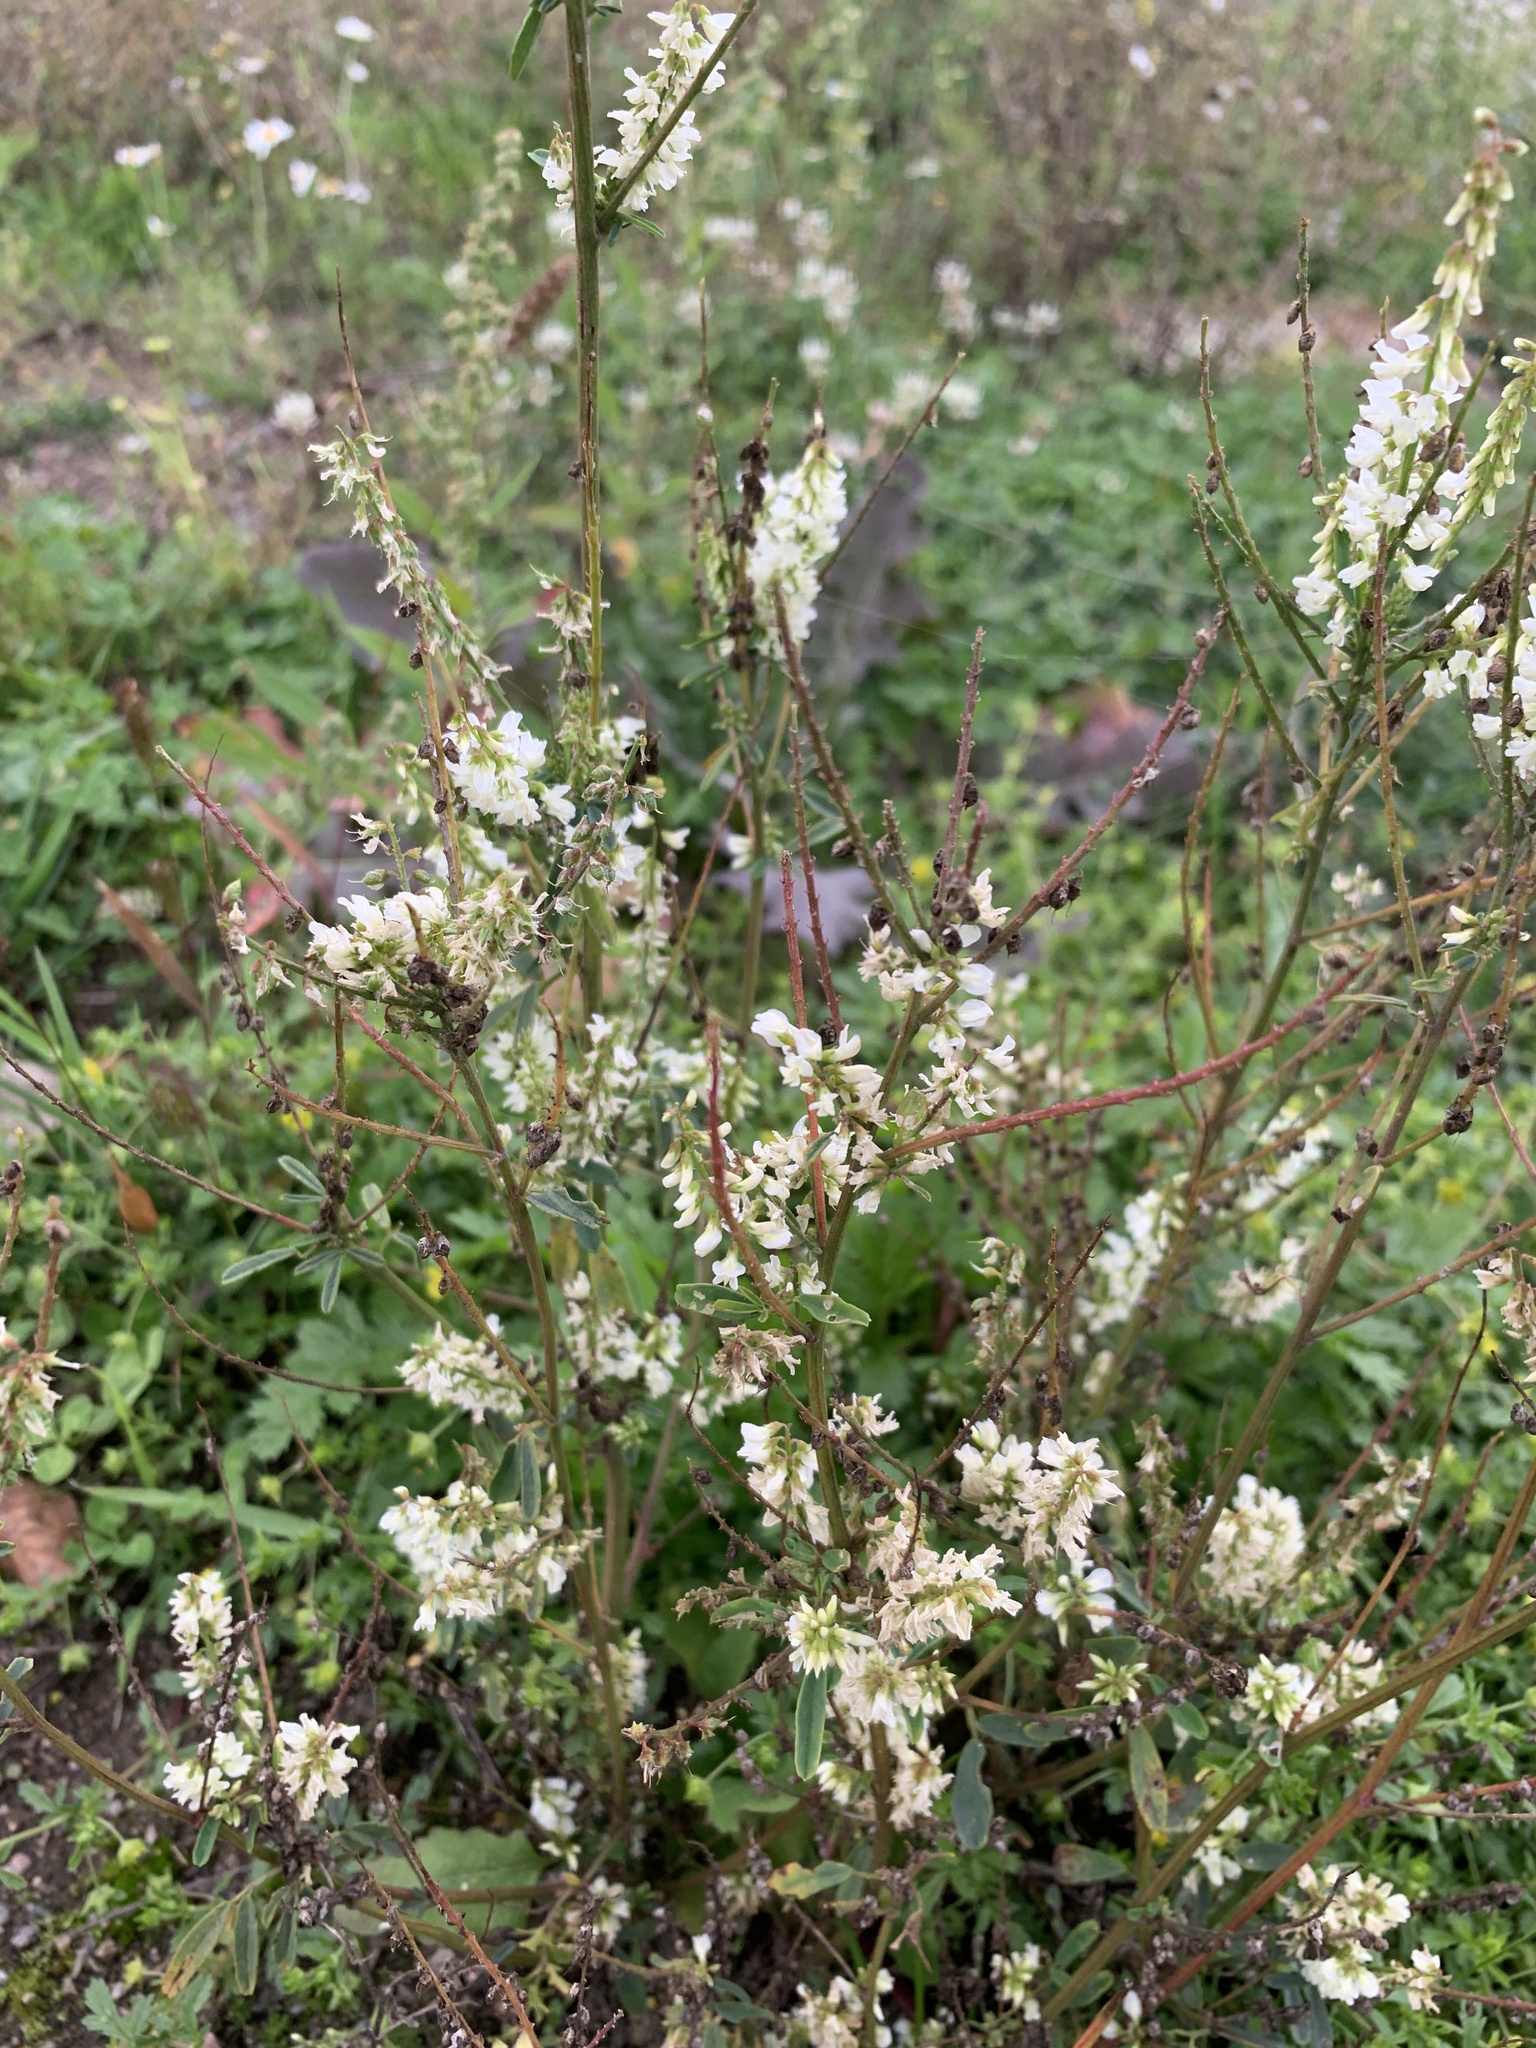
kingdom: Plantae
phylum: Tracheophyta
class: Magnoliopsida
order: Fabales
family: Fabaceae
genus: Melilotus
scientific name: Melilotus albus
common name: White melilot
